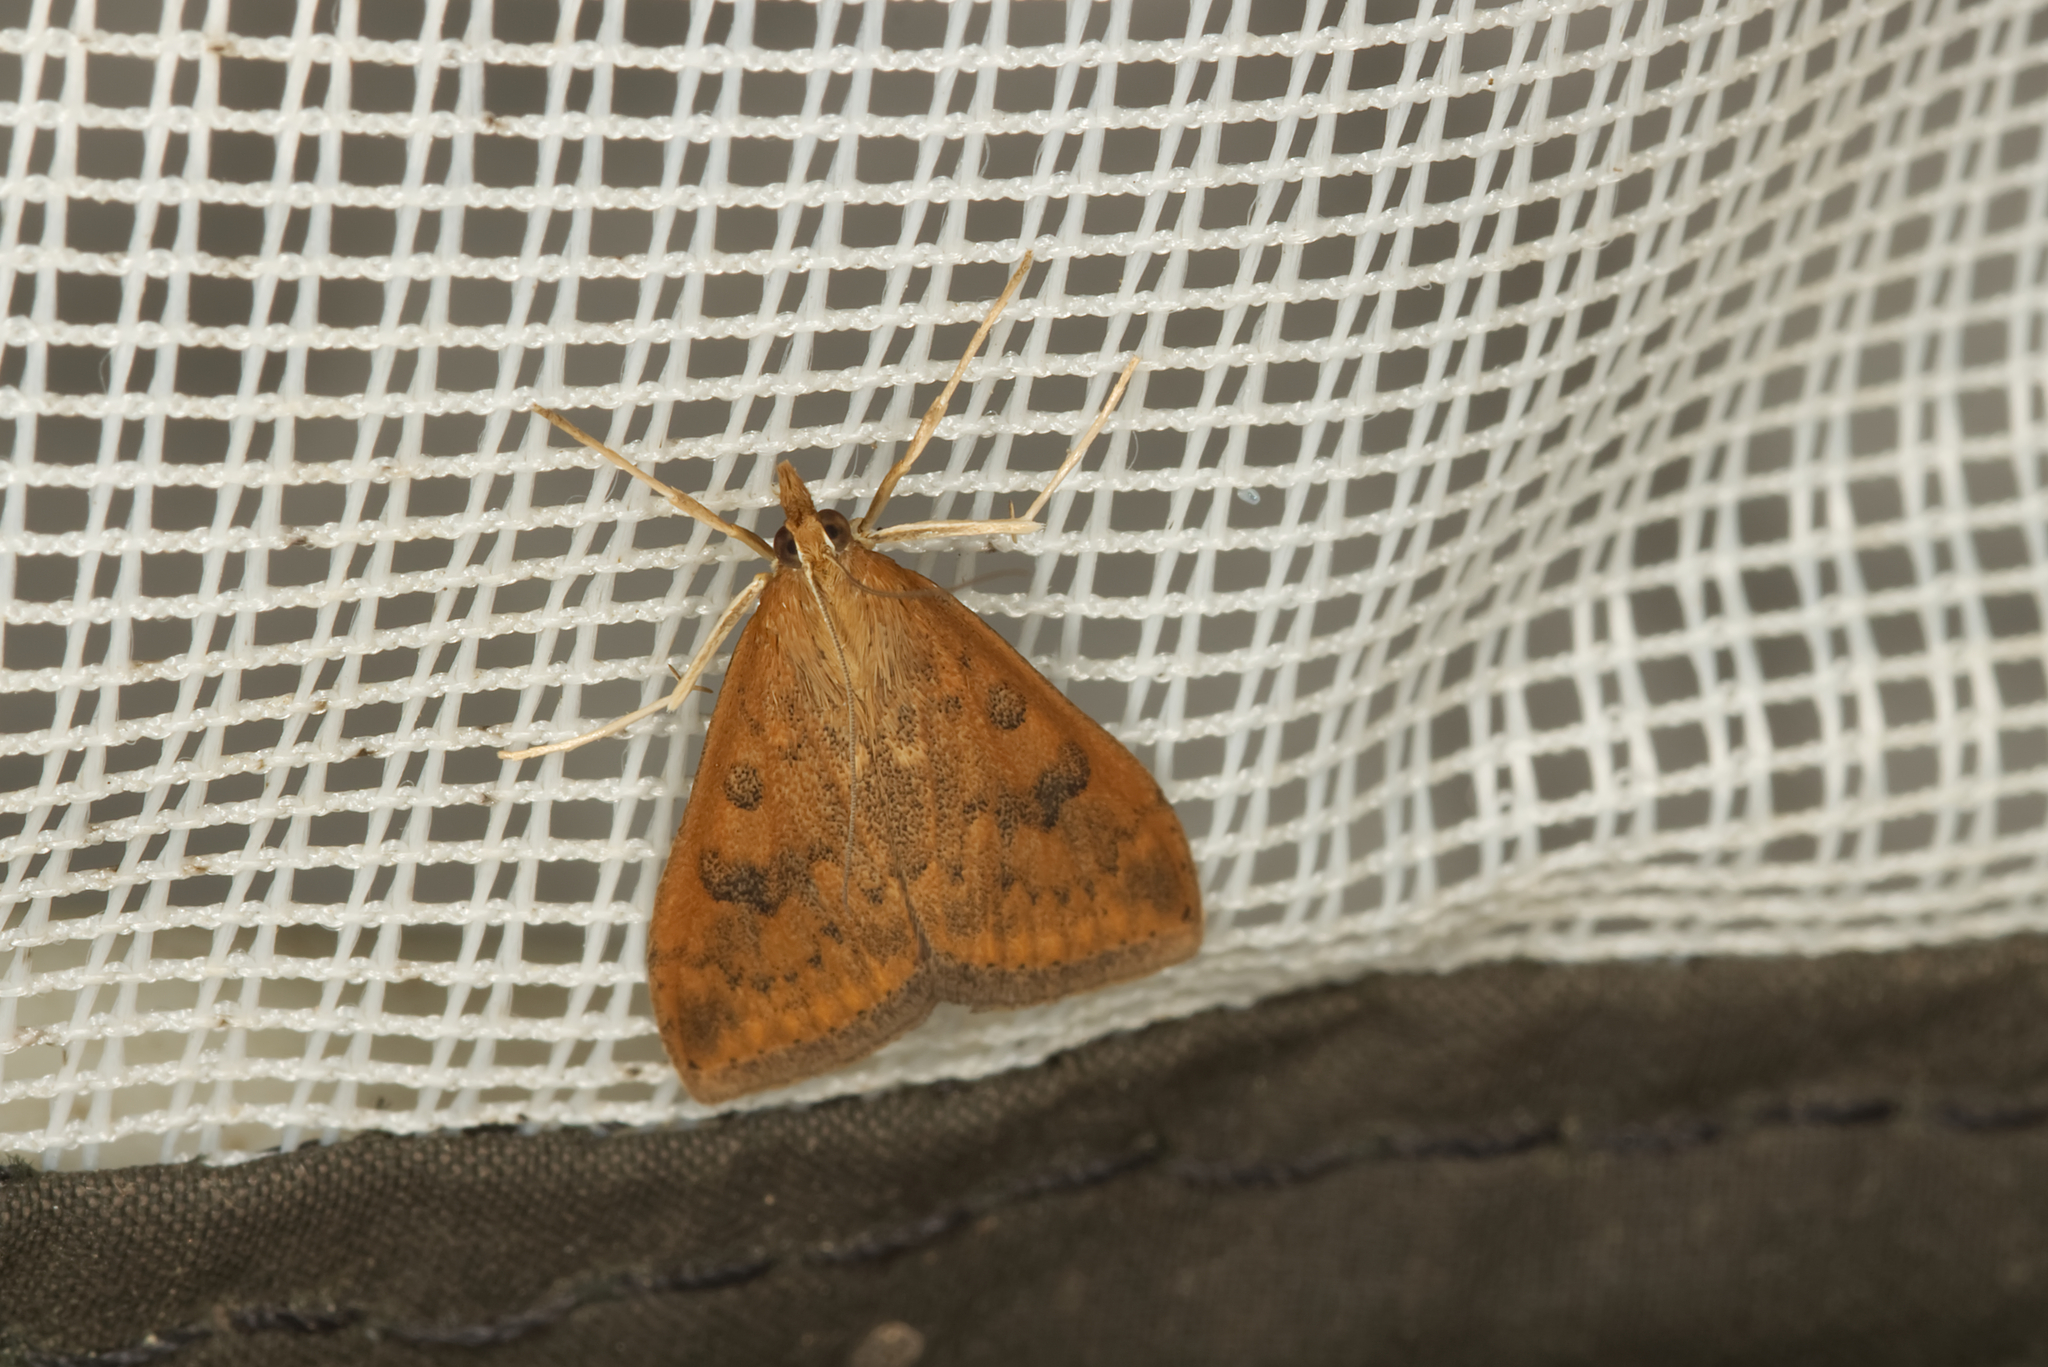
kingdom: Animalia
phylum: Arthropoda
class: Insecta
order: Lepidoptera
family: Crambidae
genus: Udea
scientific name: Udea ferrugalis
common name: Rusty dot
